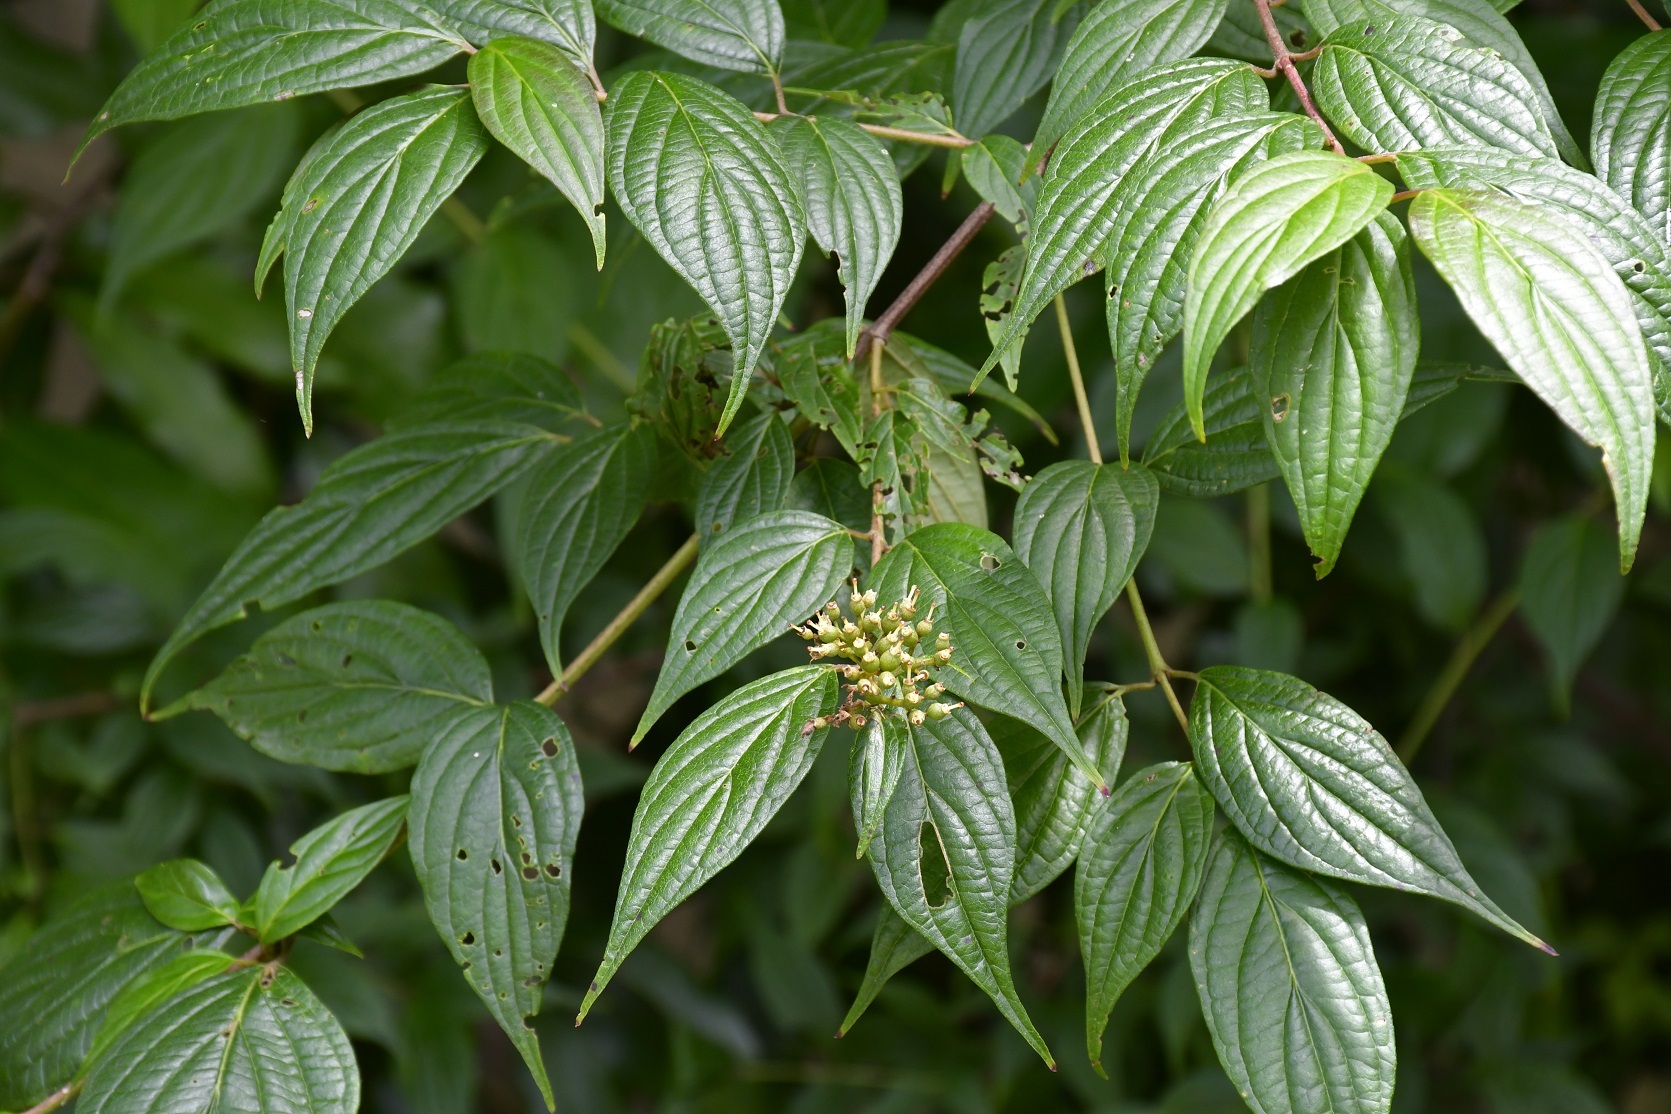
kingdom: Plantae
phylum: Tracheophyta
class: Magnoliopsida
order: Cornales
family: Cornaceae
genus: Cornus
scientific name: Cornus excelsa
